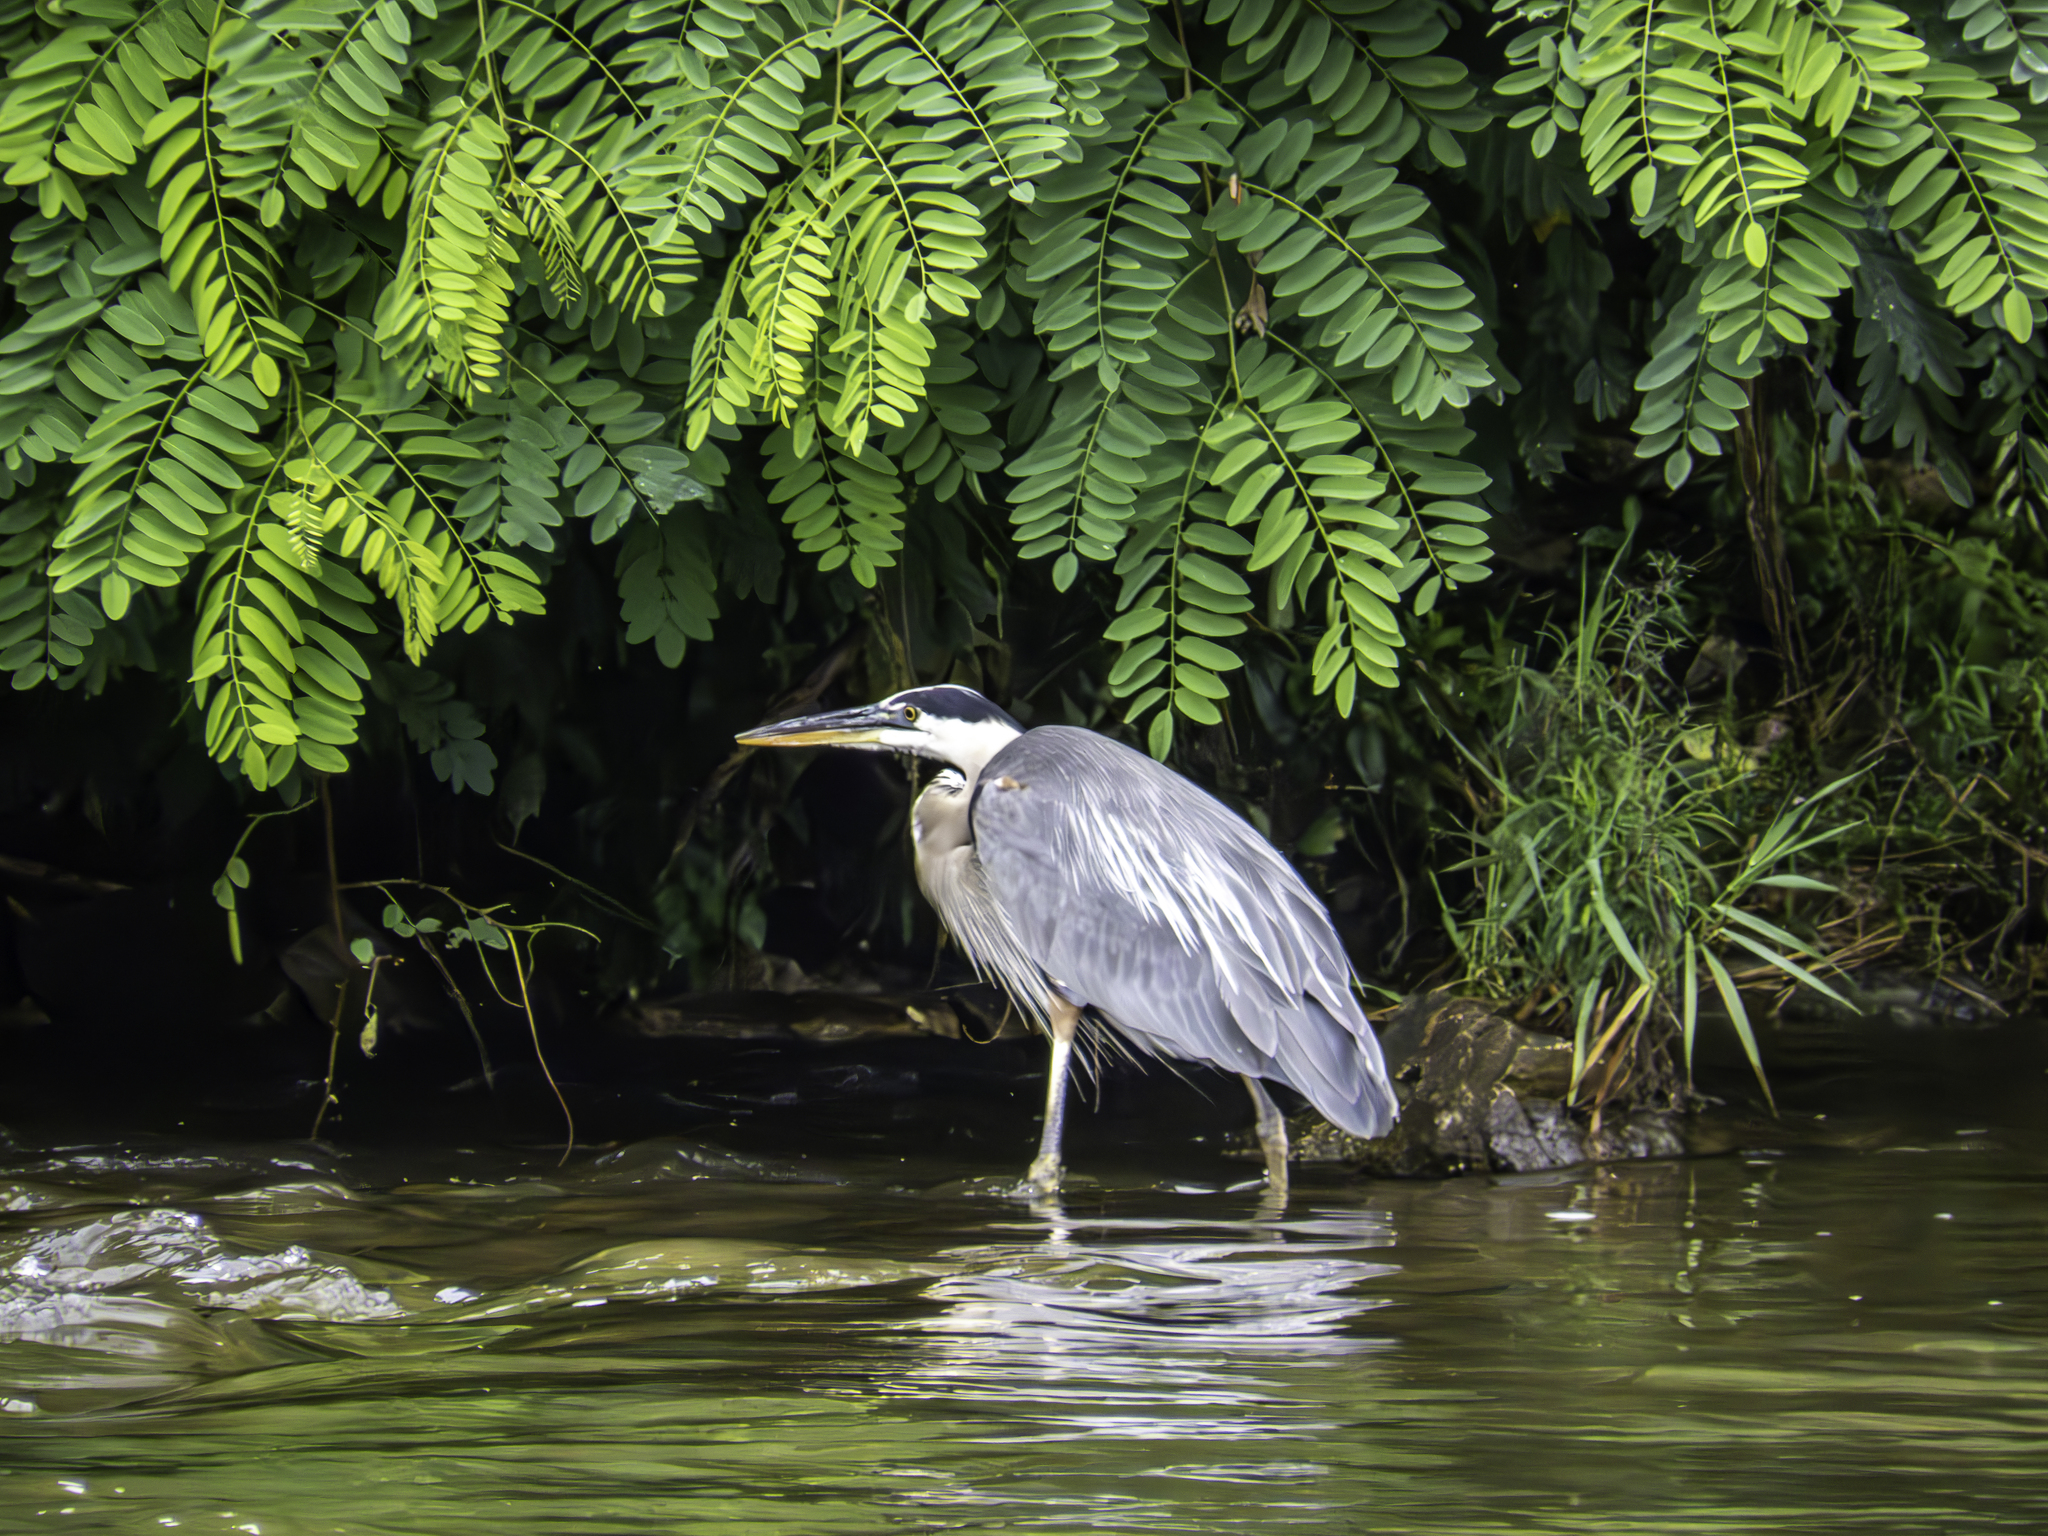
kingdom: Animalia
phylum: Chordata
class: Aves
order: Pelecaniformes
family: Ardeidae
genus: Ardea
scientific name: Ardea herodias
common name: Great blue heron
